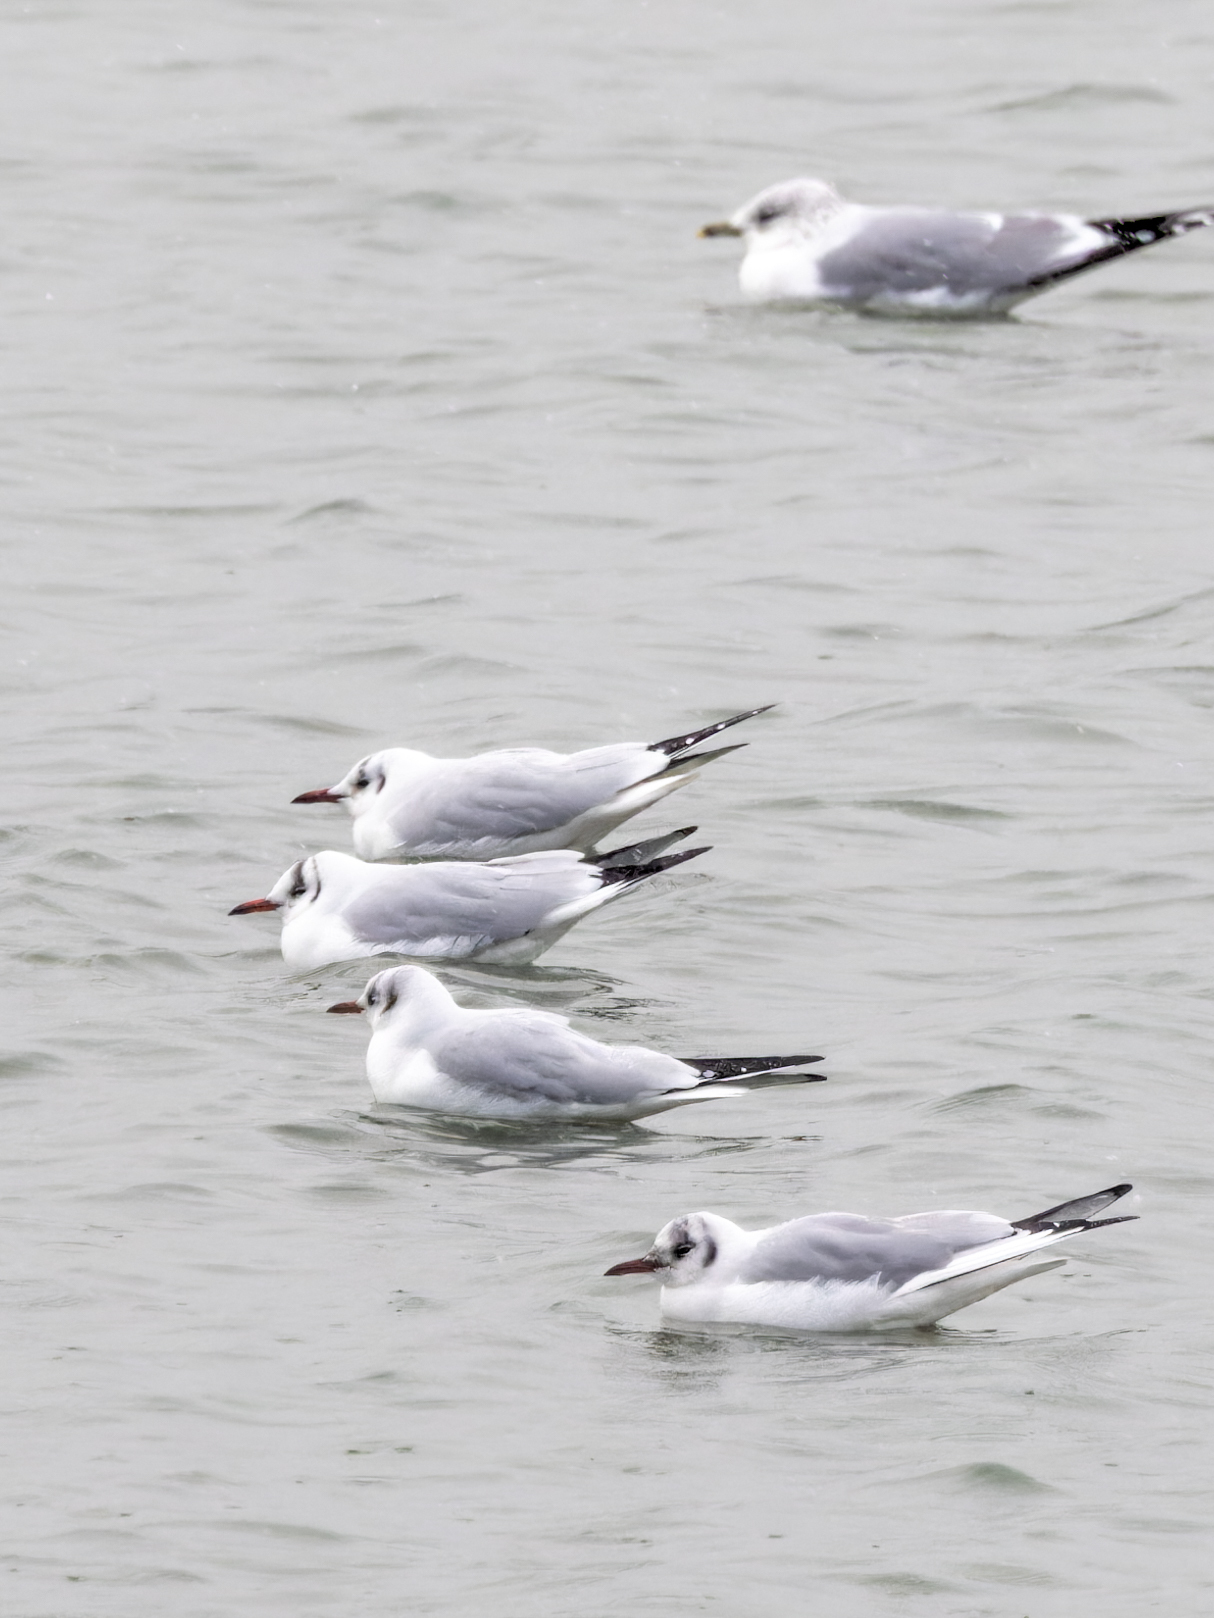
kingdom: Animalia
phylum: Chordata
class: Aves
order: Charadriiformes
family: Laridae
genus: Chroicocephalus
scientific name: Chroicocephalus ridibundus
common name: Black-headed gull
